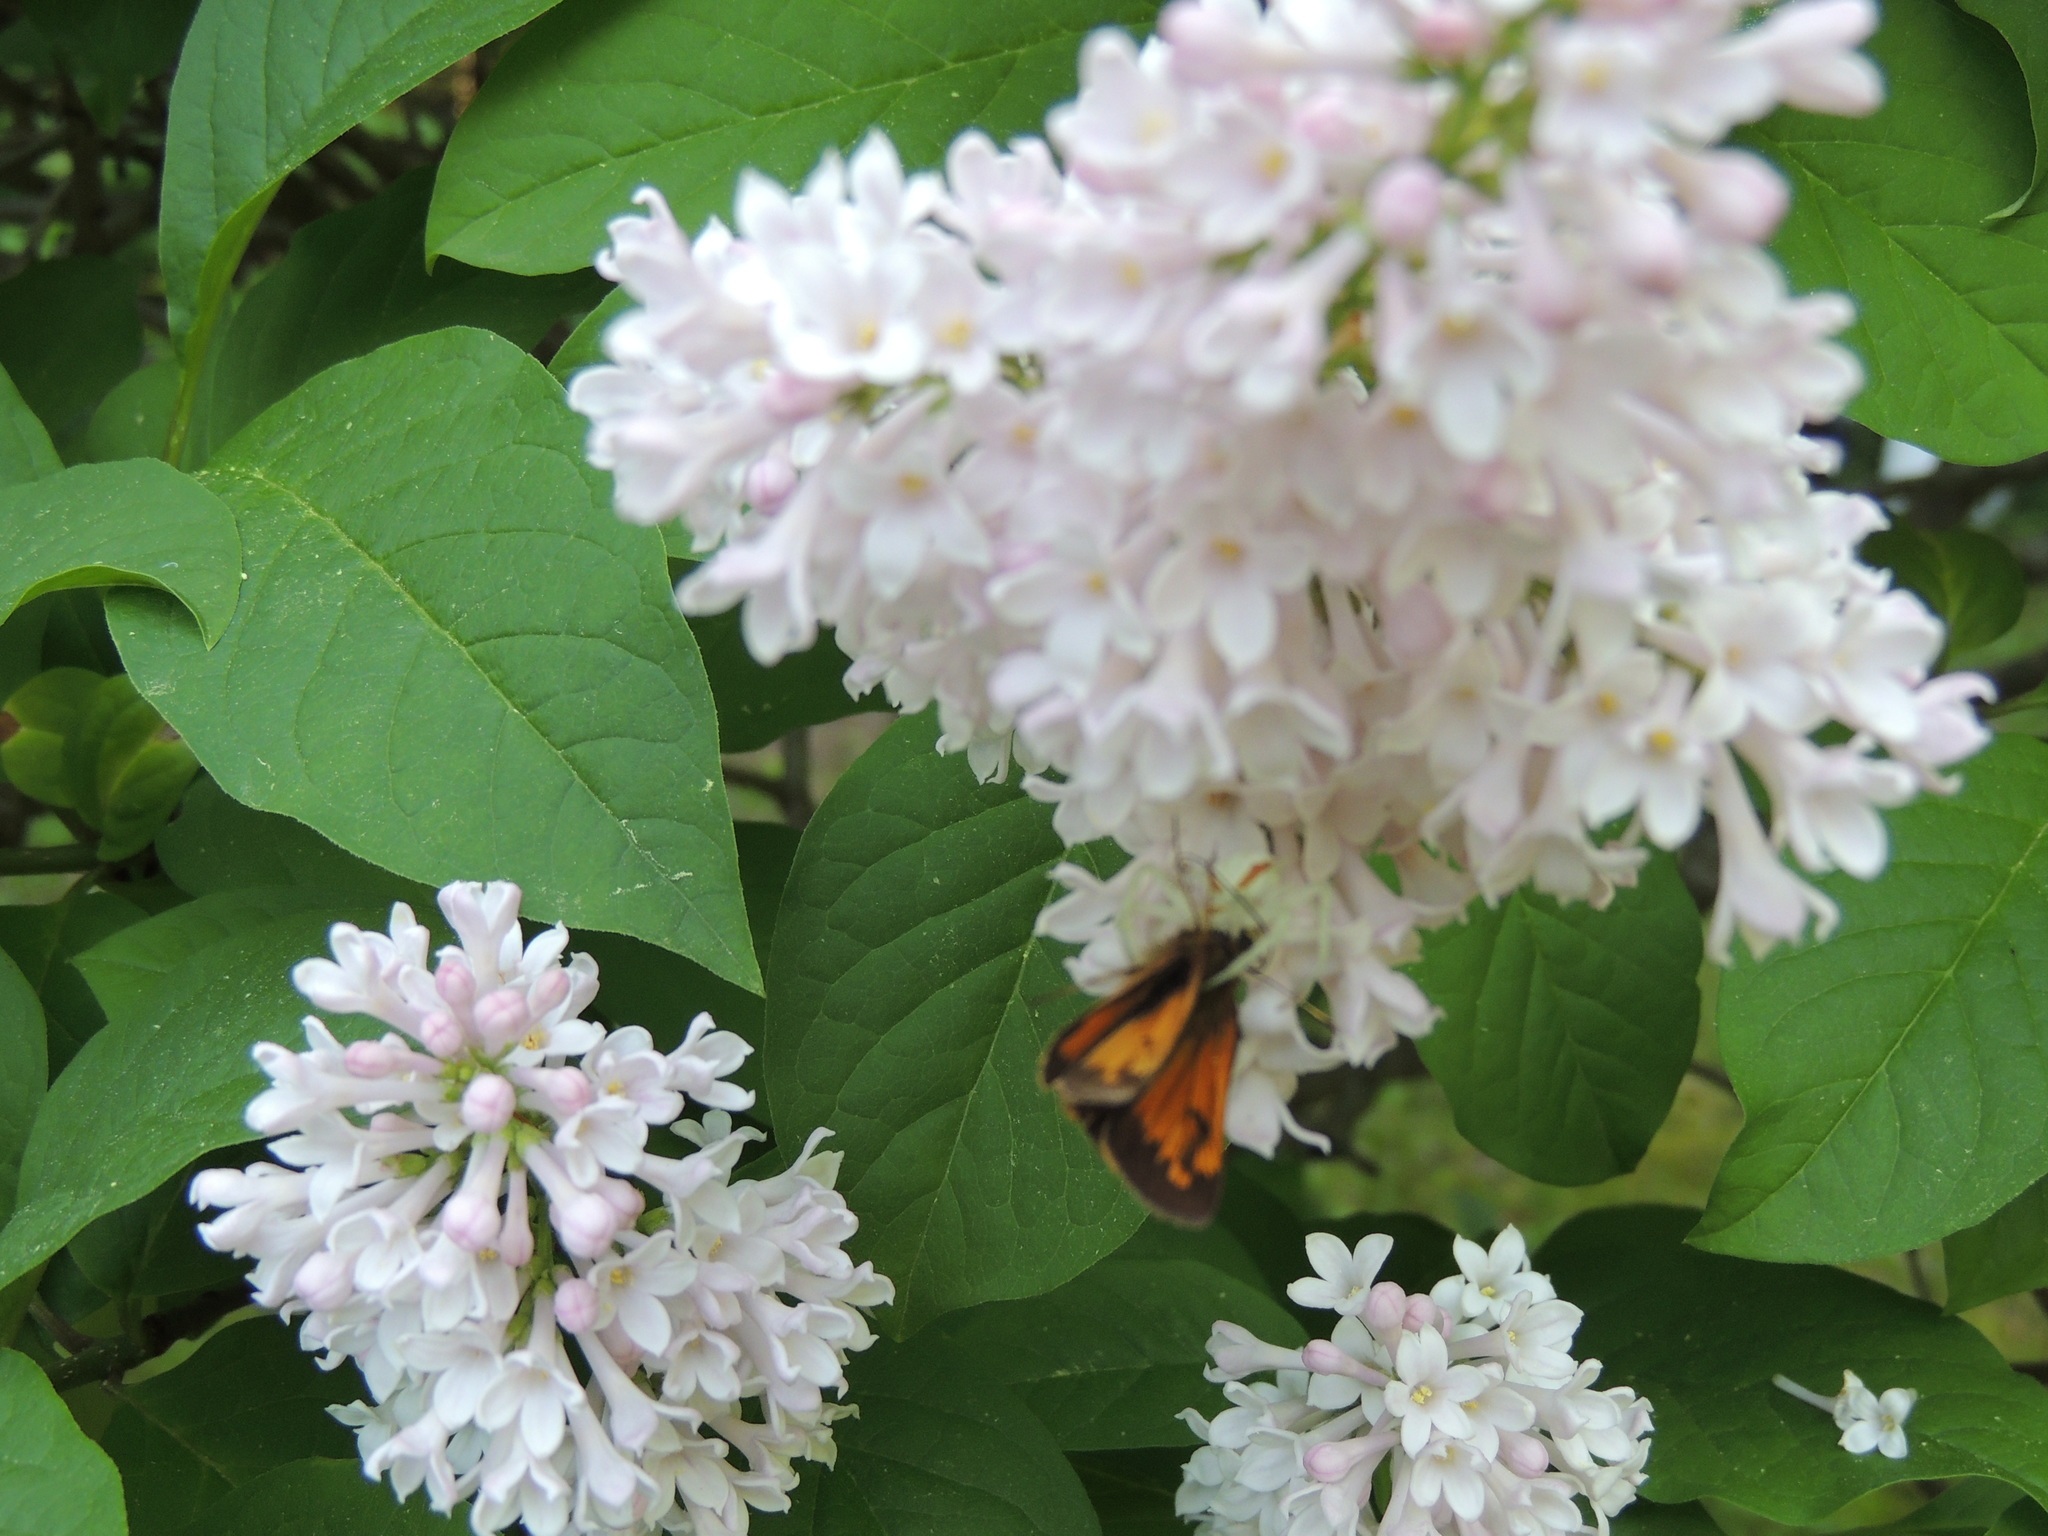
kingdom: Animalia
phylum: Arthropoda
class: Insecta
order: Lepidoptera
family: Hesperiidae
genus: Lon
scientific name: Lon hobomok
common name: Hobomok skipper
